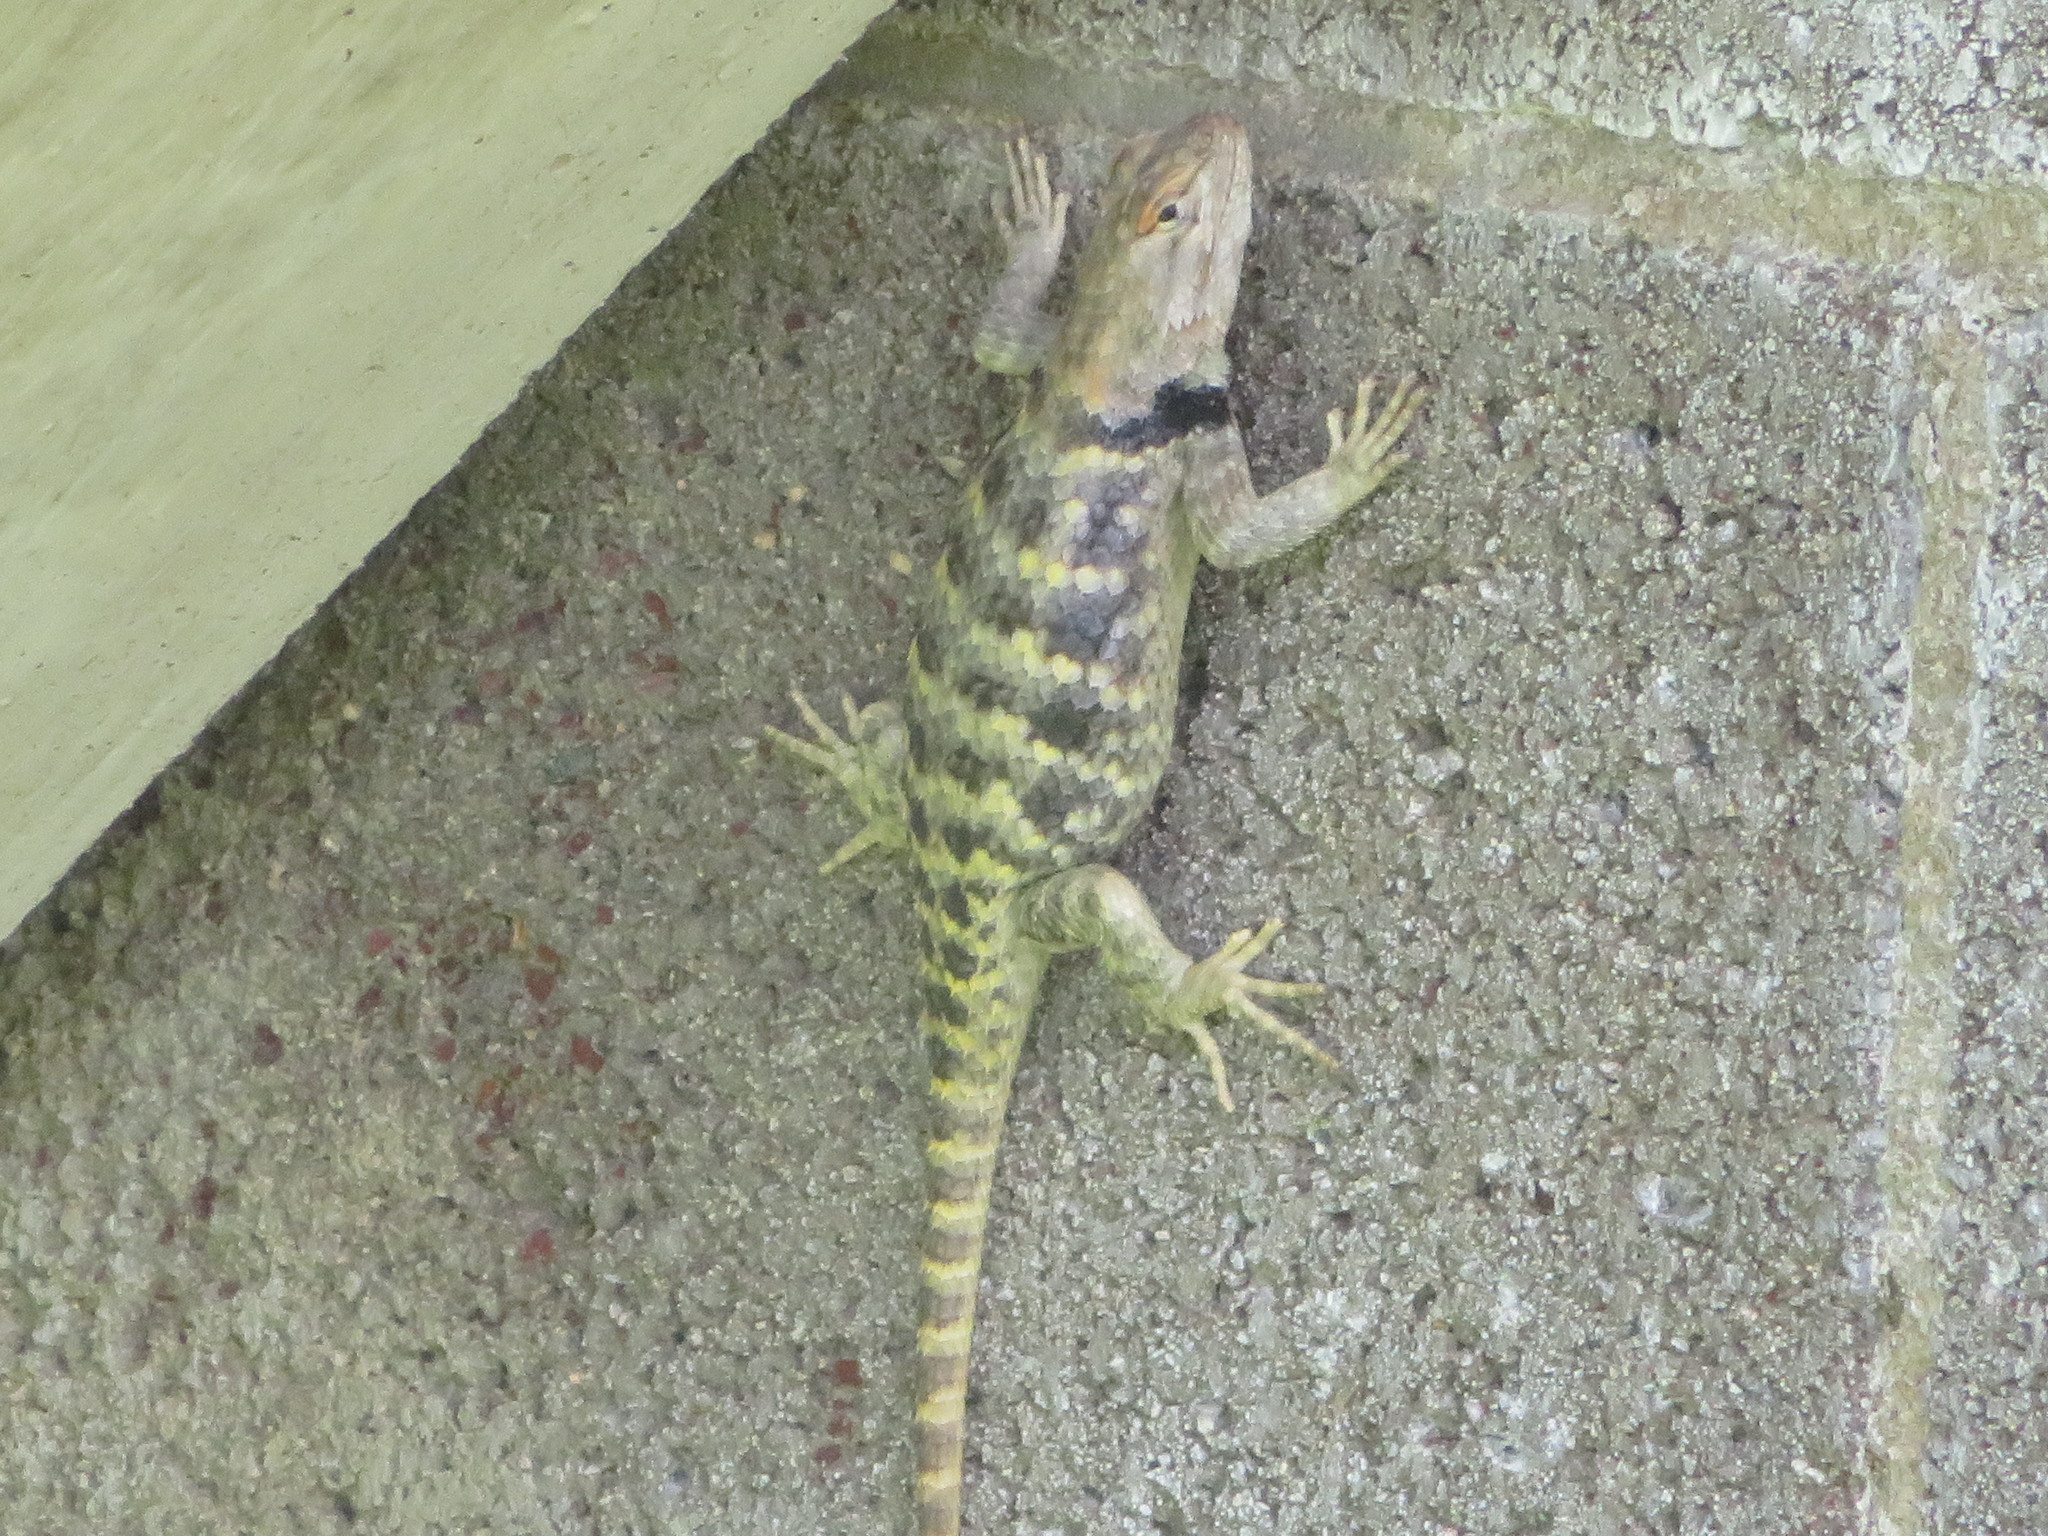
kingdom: Animalia
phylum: Chordata
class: Squamata
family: Phrynosomatidae
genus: Sceloporus
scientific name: Sceloporus uniformis
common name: Yellow-backed spiny lizard
